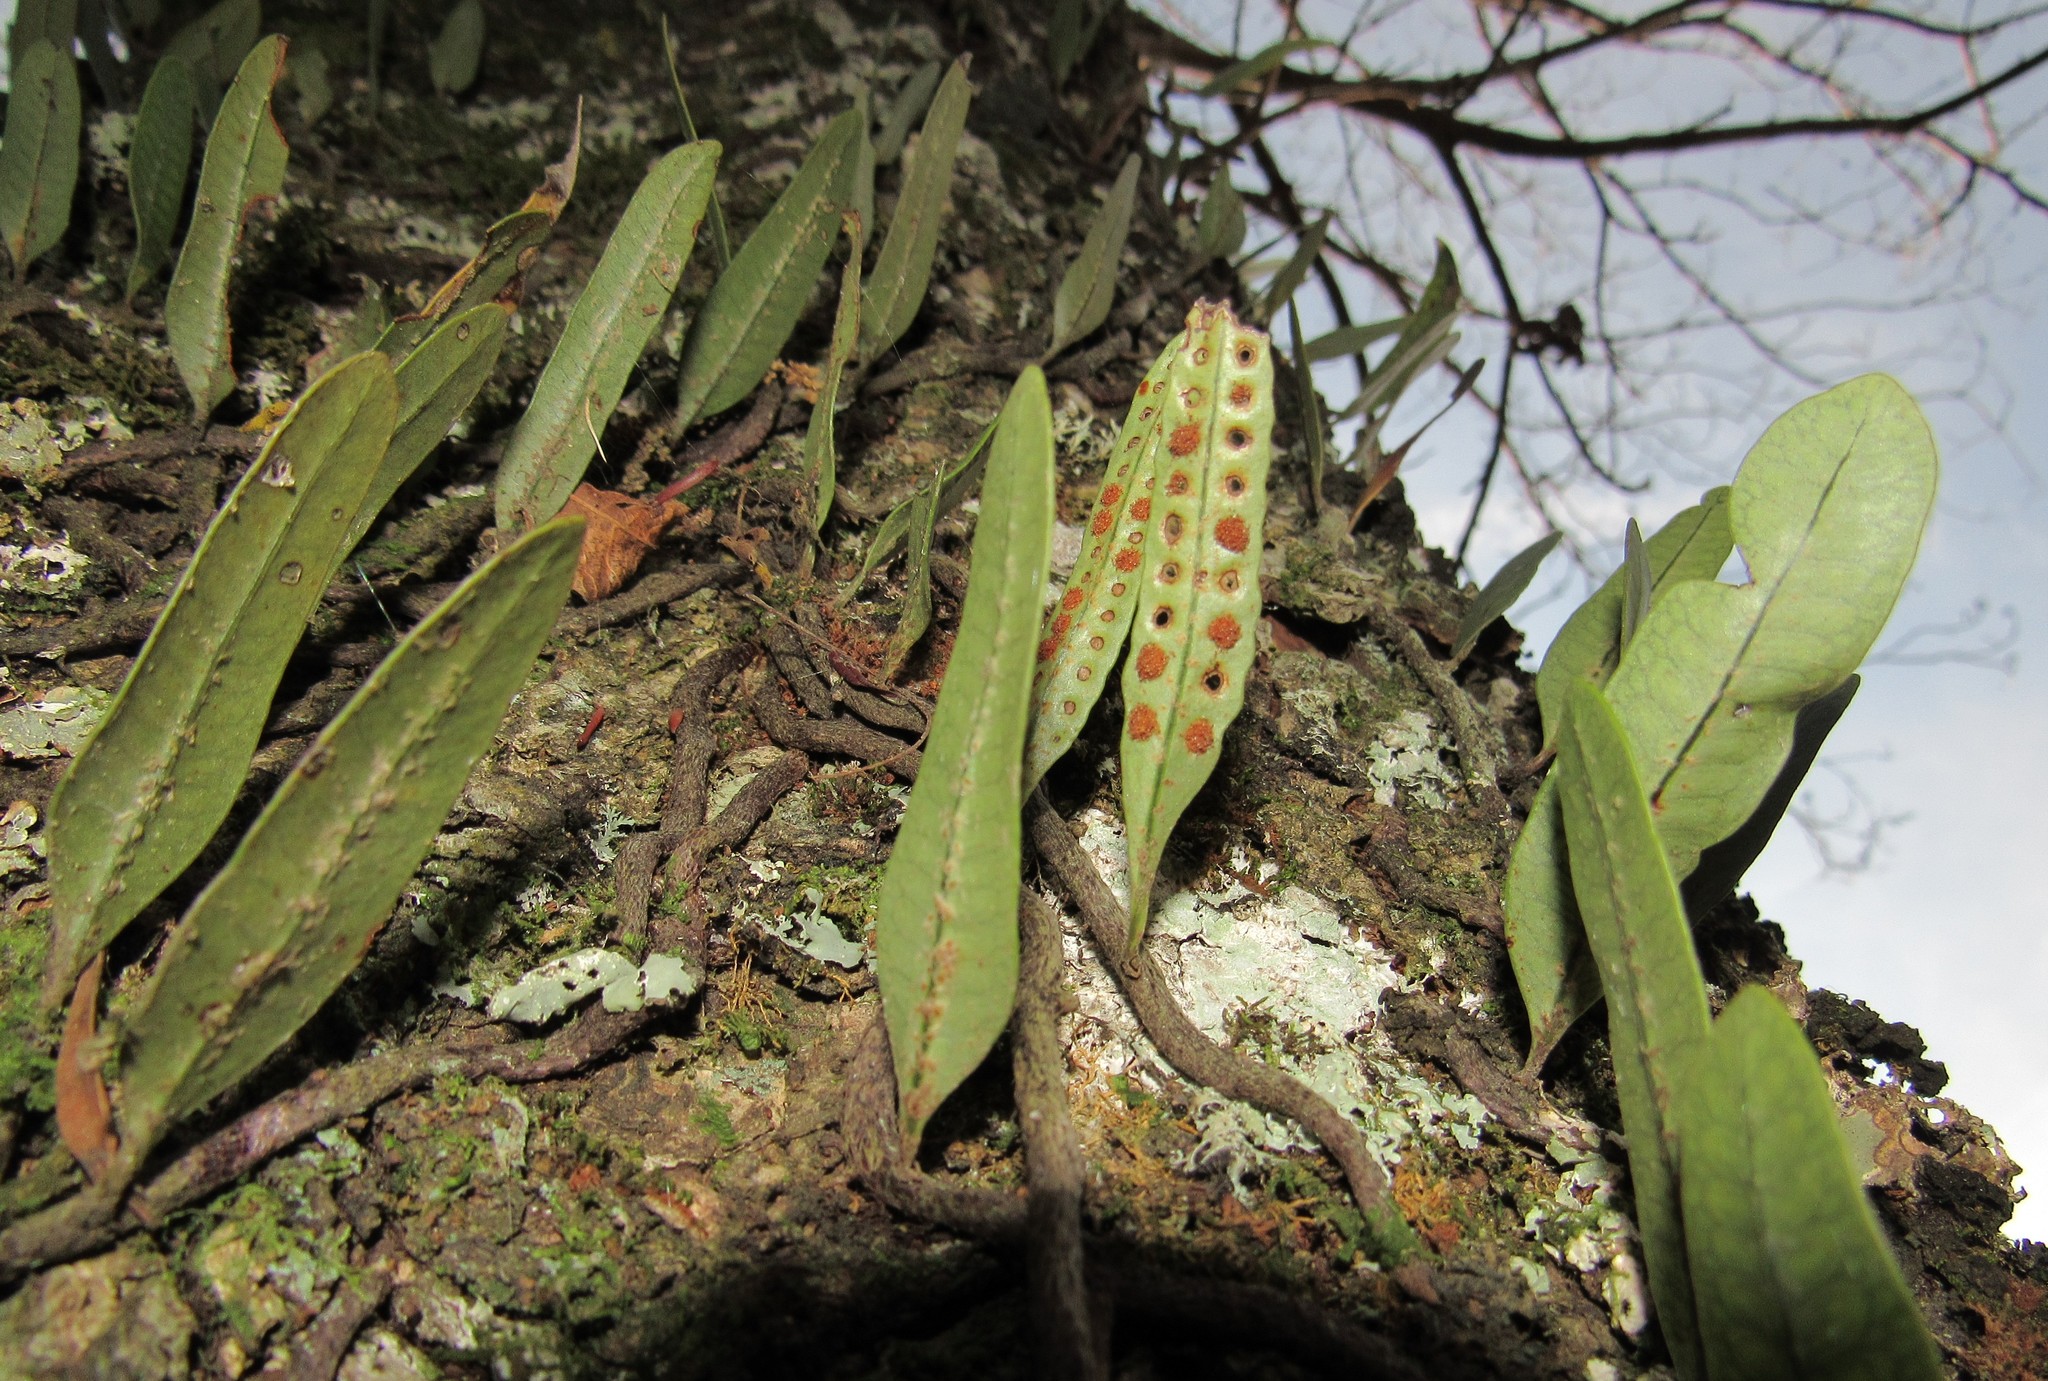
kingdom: Plantae
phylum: Tracheophyta
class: Polypodiopsida
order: Polypodiales
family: Polypodiaceae
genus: Microgramma
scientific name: Microgramma squamulosa
